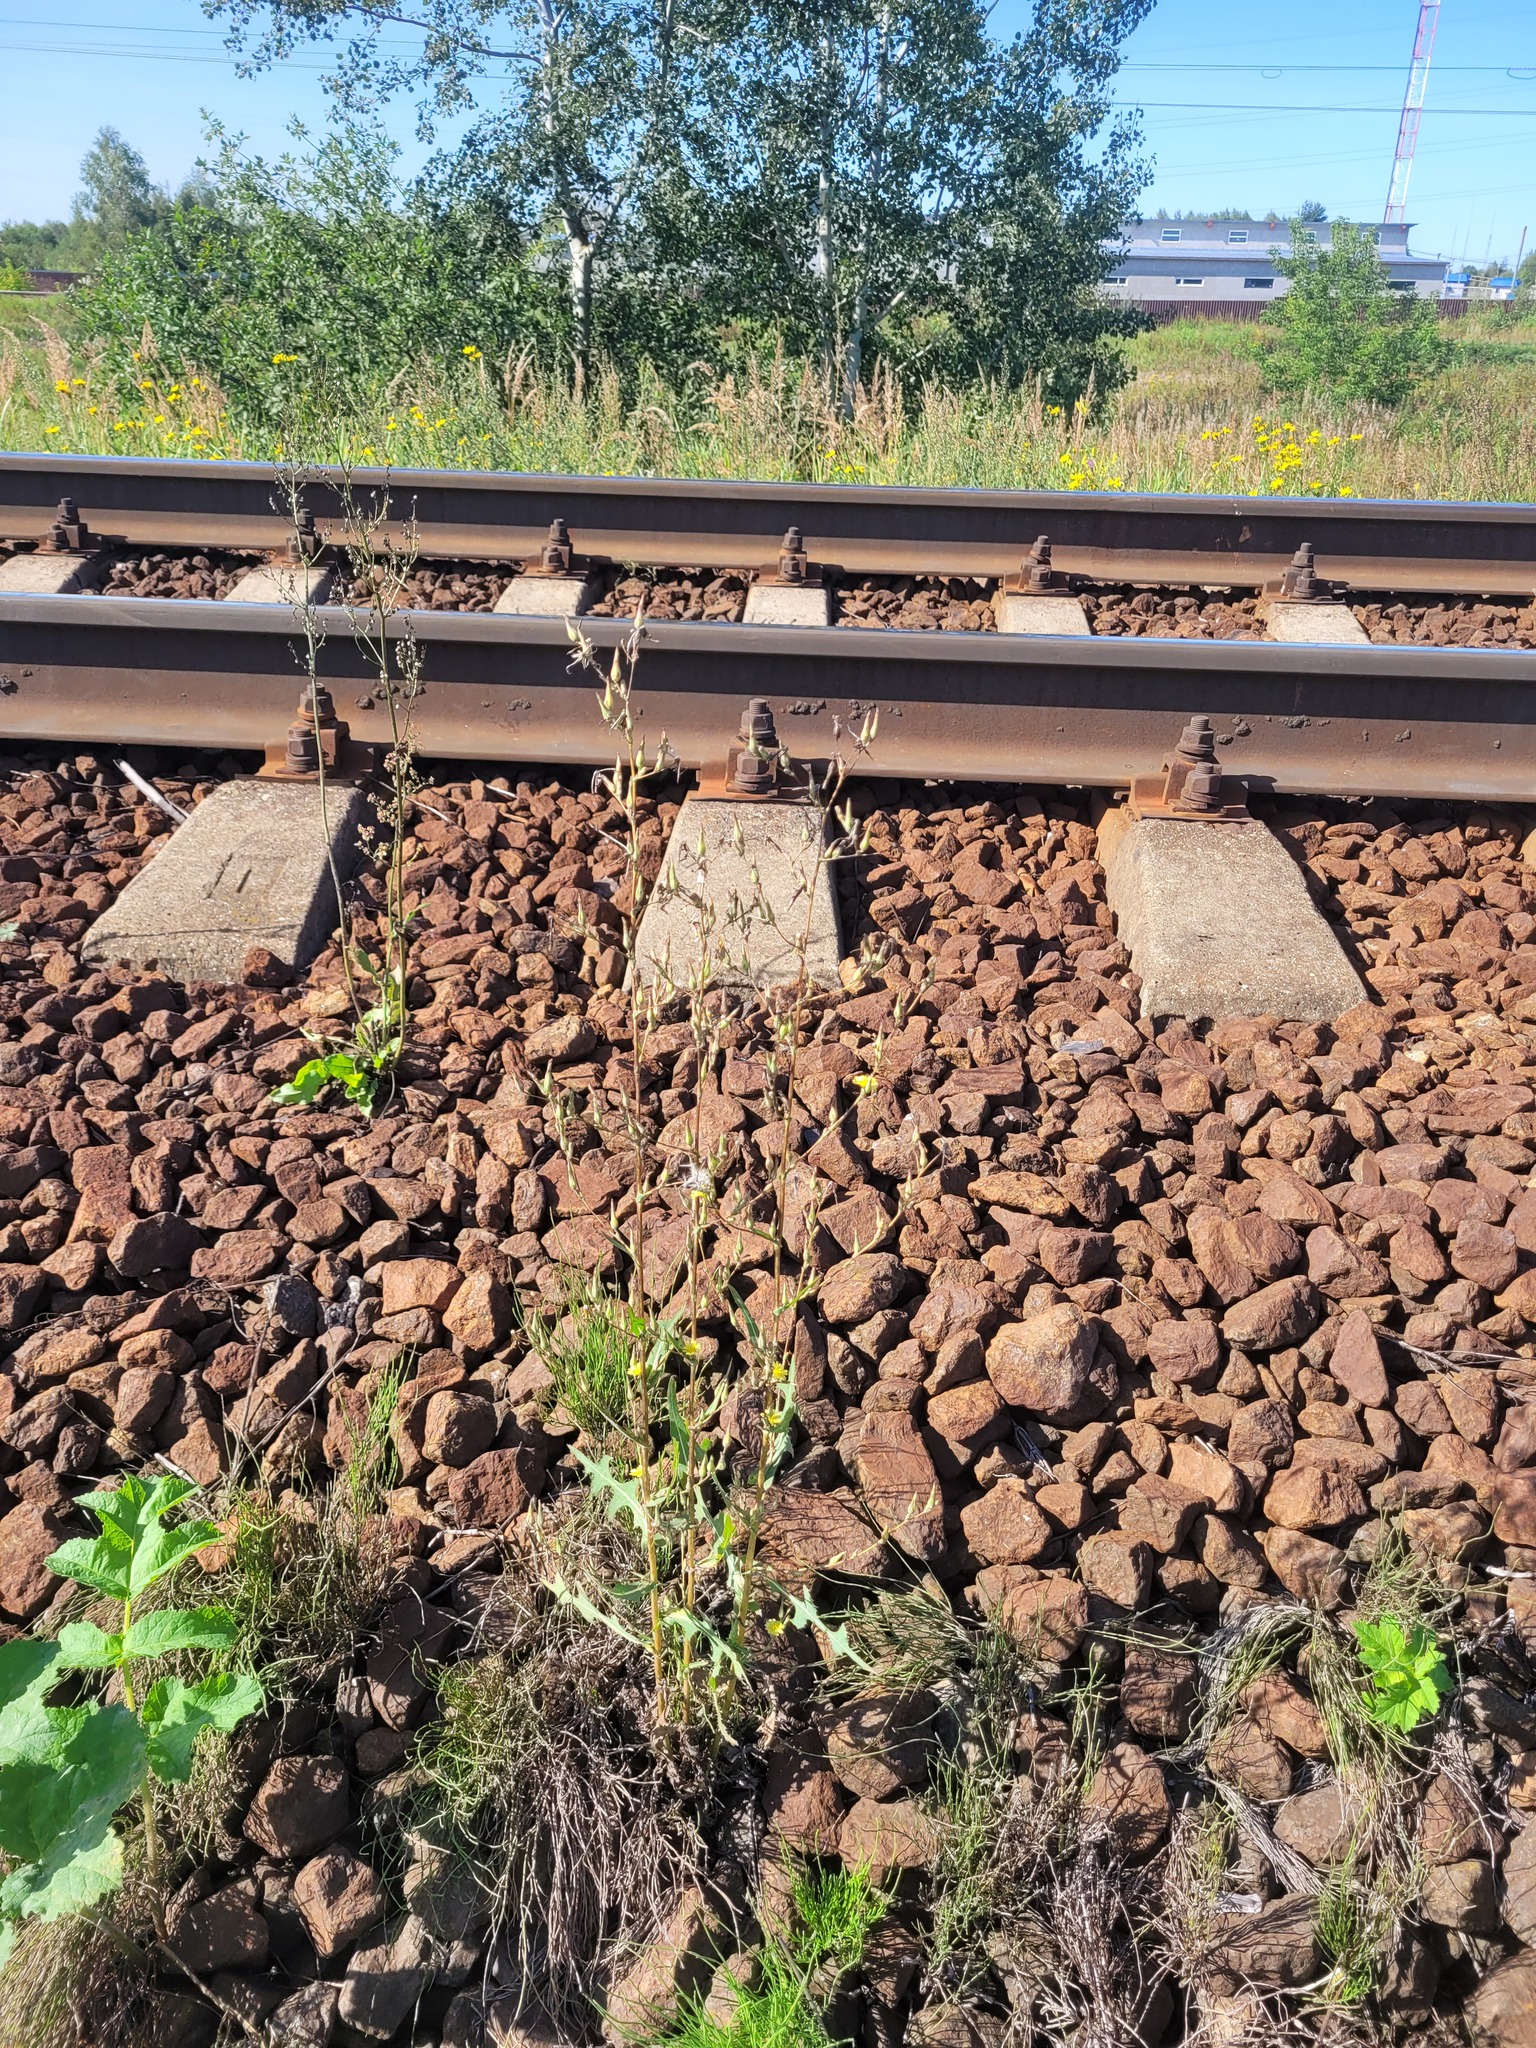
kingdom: Plantae
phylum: Tracheophyta
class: Magnoliopsida
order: Asterales
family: Asteraceae
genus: Lactuca
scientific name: Lactuca serriola
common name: Prickly lettuce
